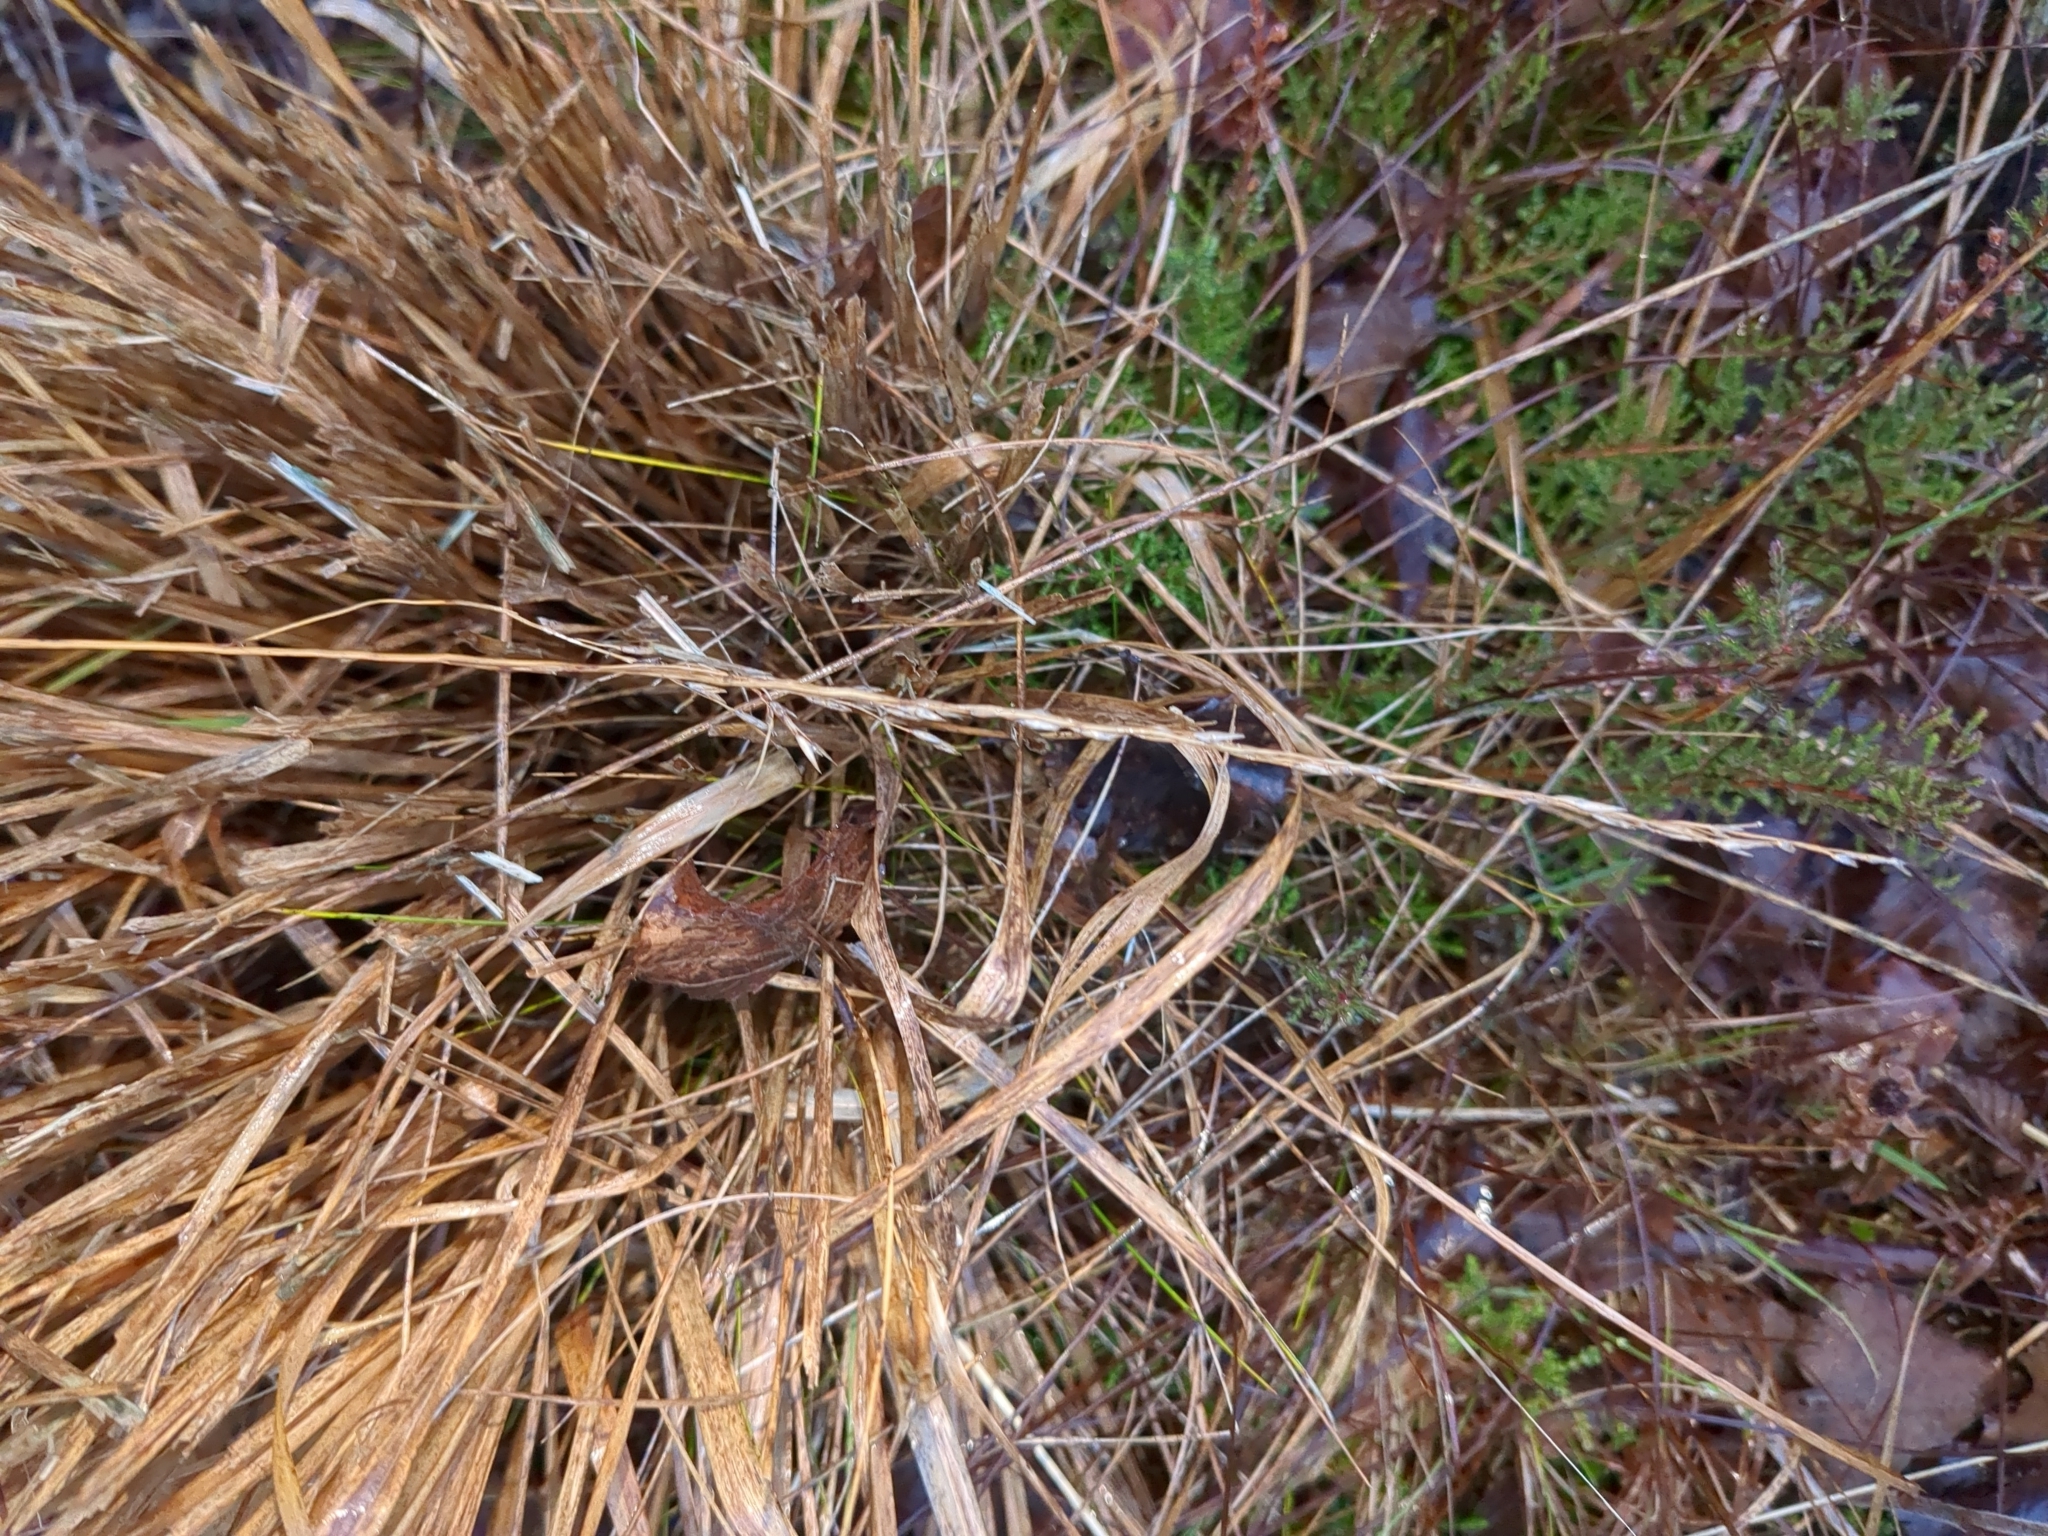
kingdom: Plantae
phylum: Tracheophyta
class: Liliopsida
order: Poales
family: Poaceae
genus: Molinia
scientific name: Molinia caerulea
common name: Purple moor-grass
